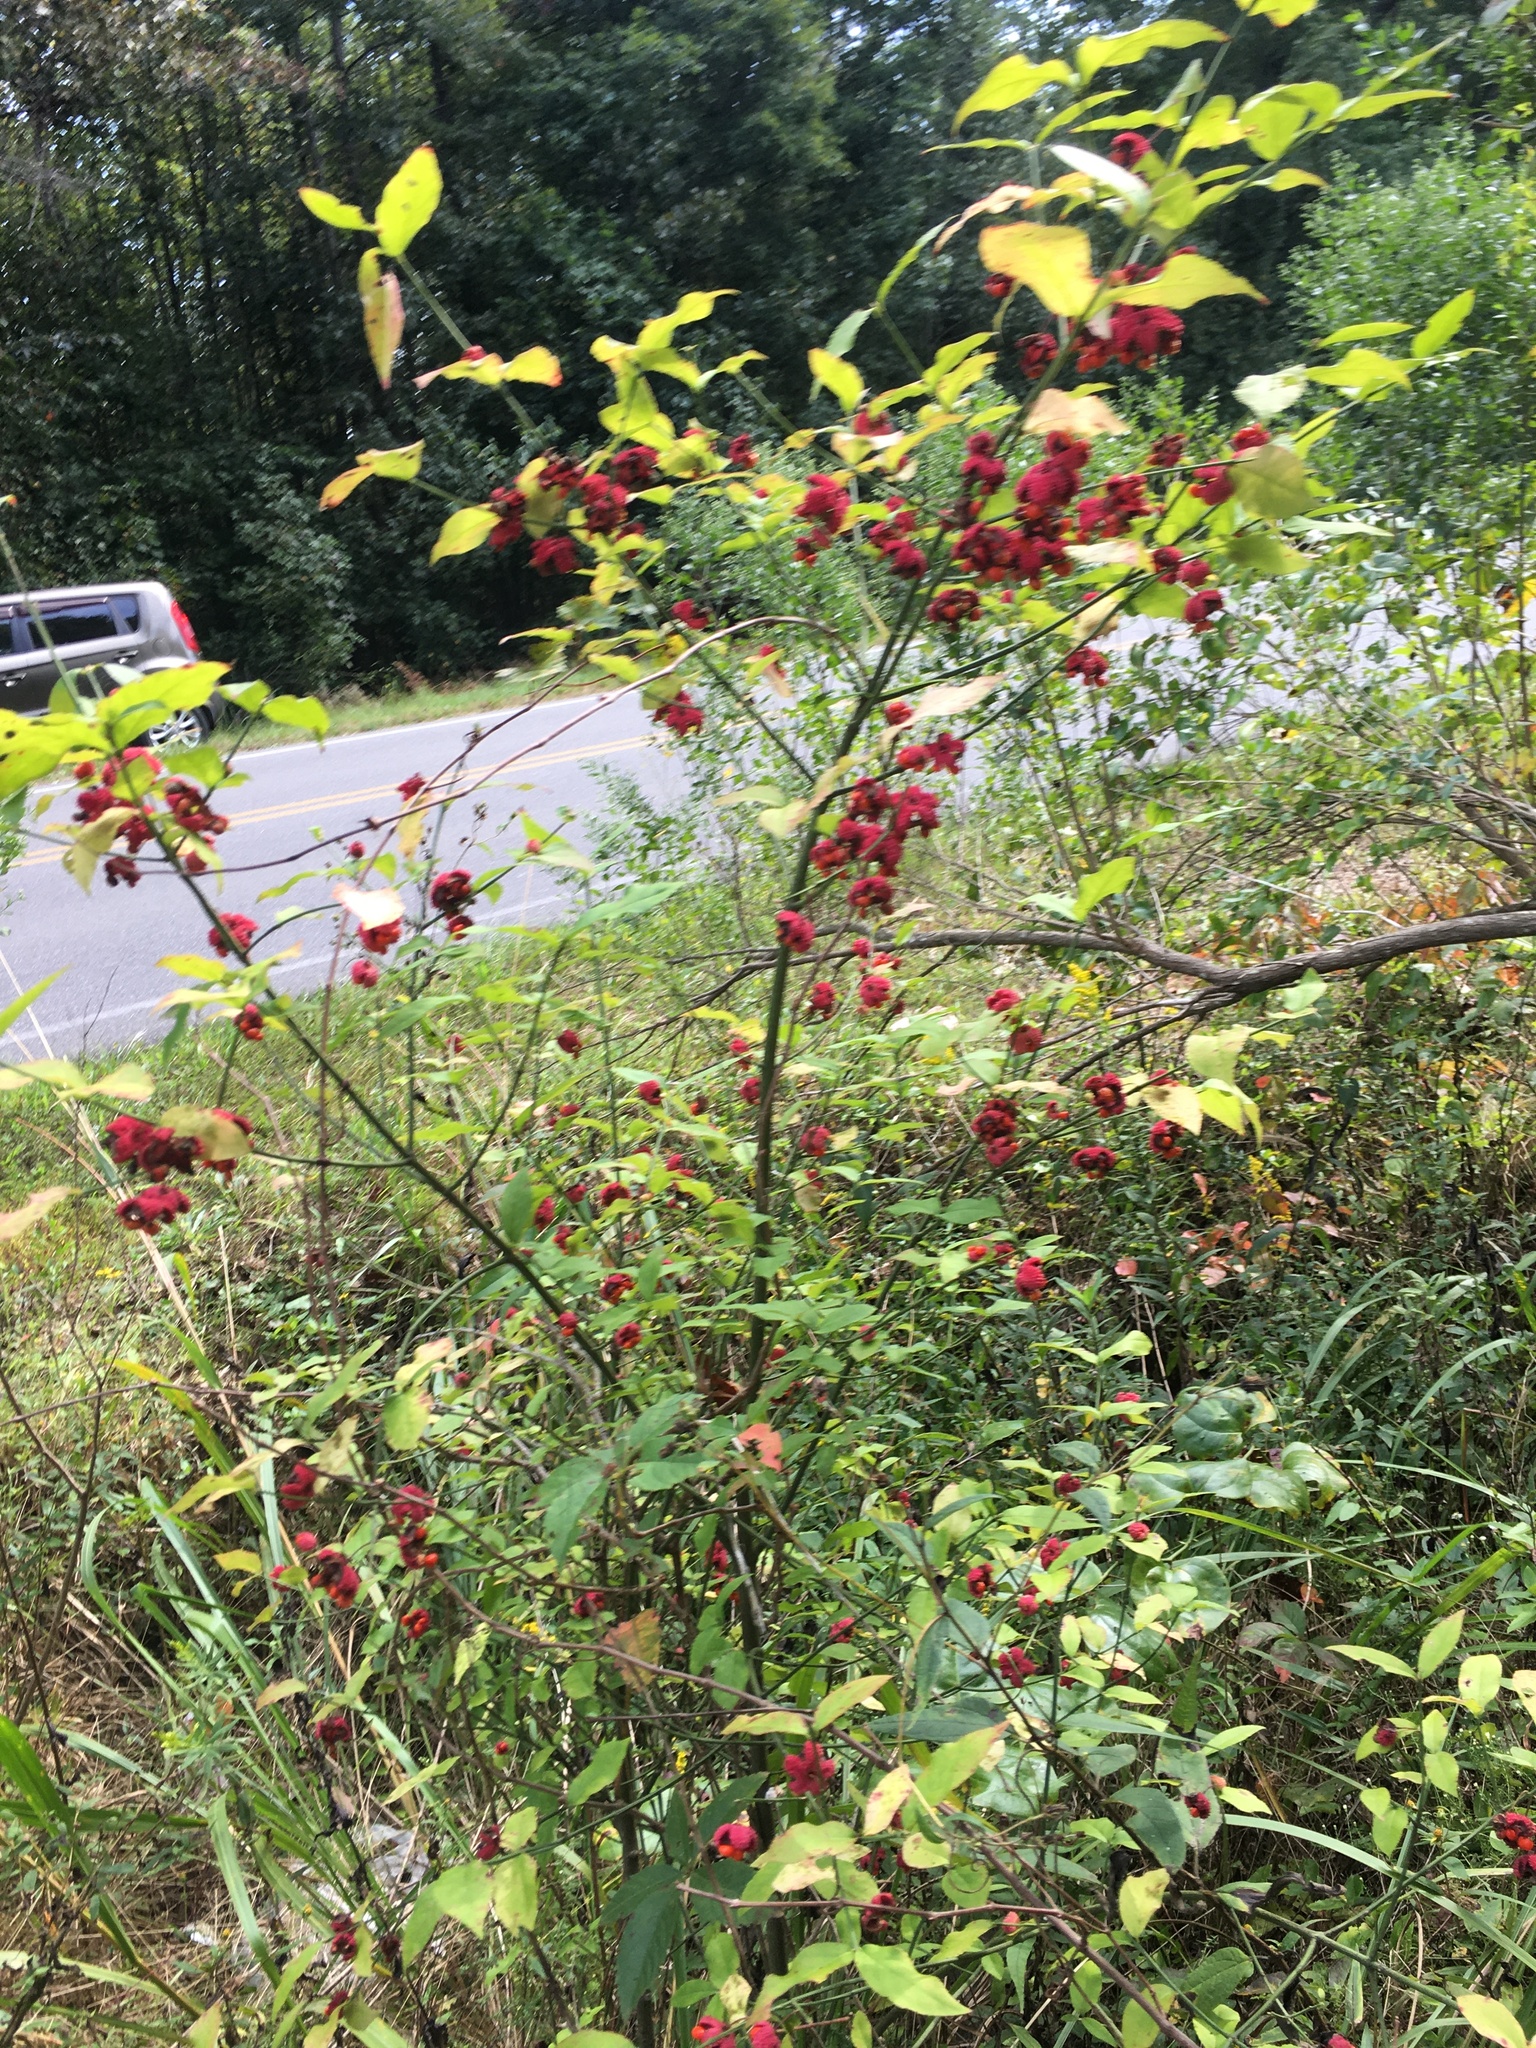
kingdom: Plantae
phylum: Tracheophyta
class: Magnoliopsida
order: Celastrales
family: Celastraceae
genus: Euonymus
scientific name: Euonymus americanus
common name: Bursting-heart
